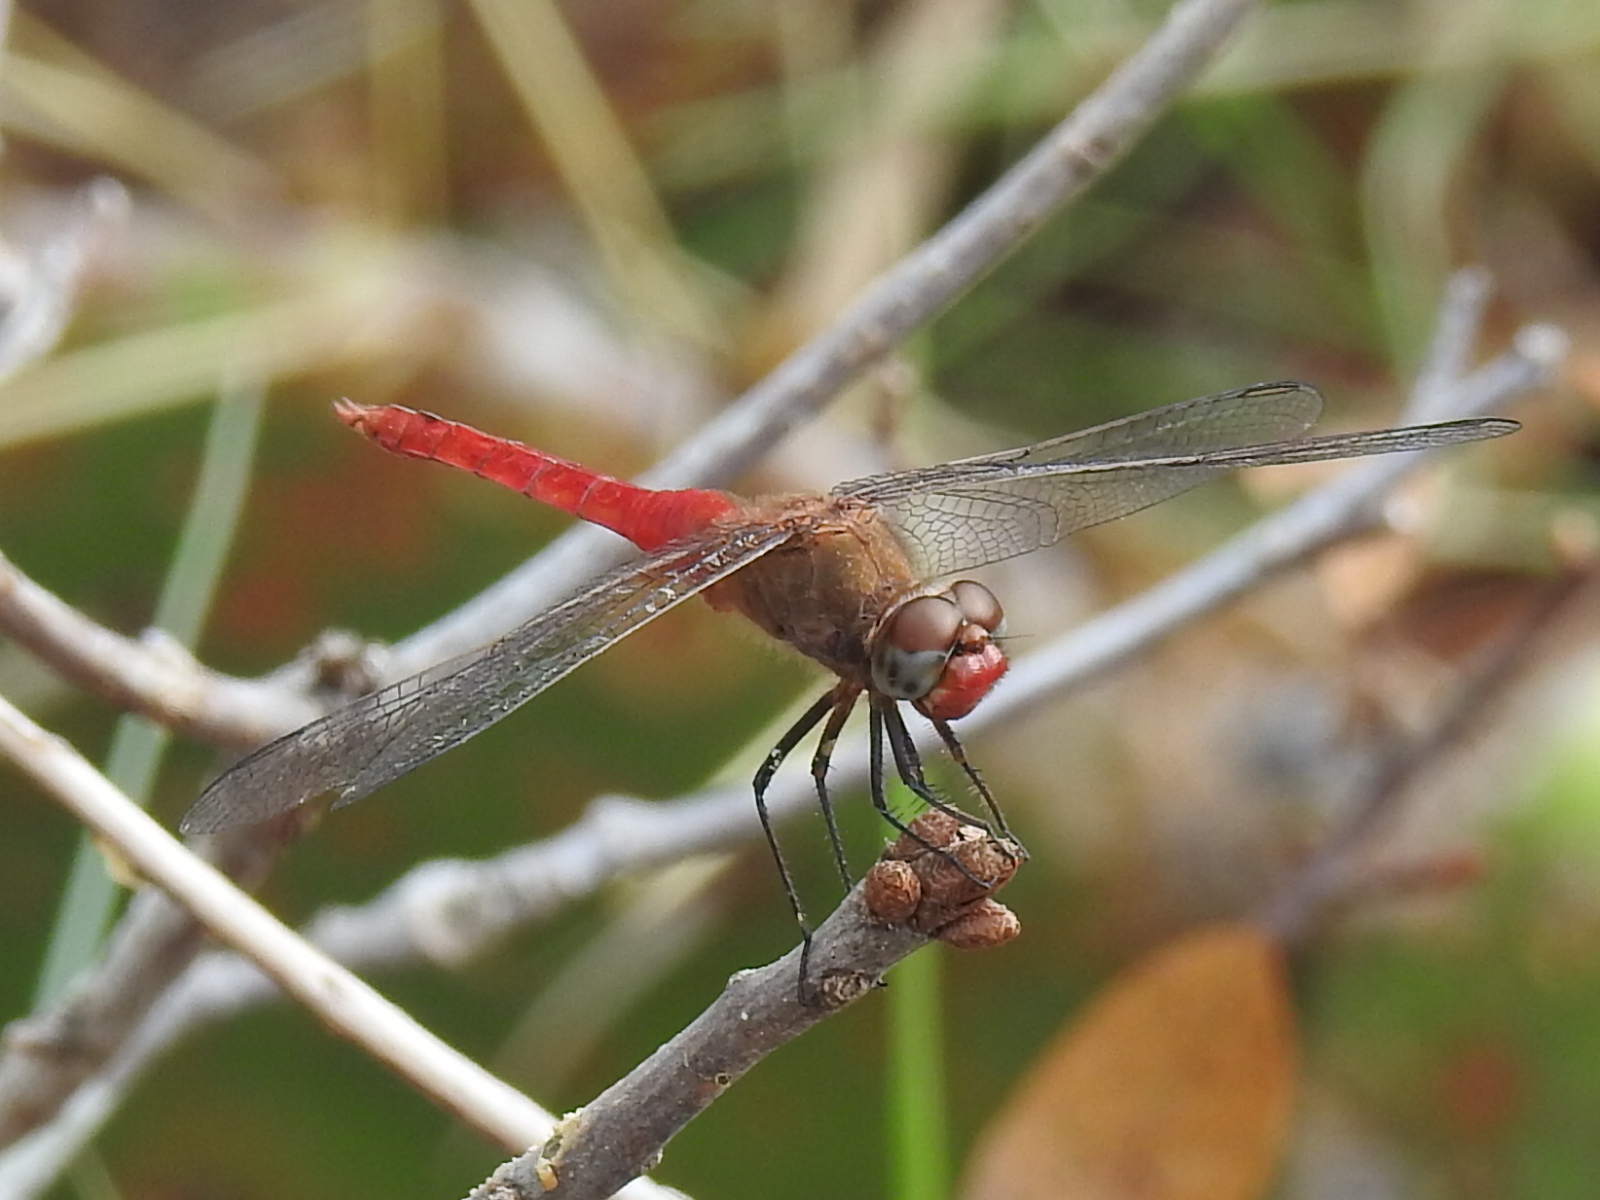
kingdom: Animalia
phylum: Arthropoda
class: Insecta
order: Odonata
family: Libellulidae
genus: Brachymesia
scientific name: Brachymesia furcata
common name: Red-taled pennant
